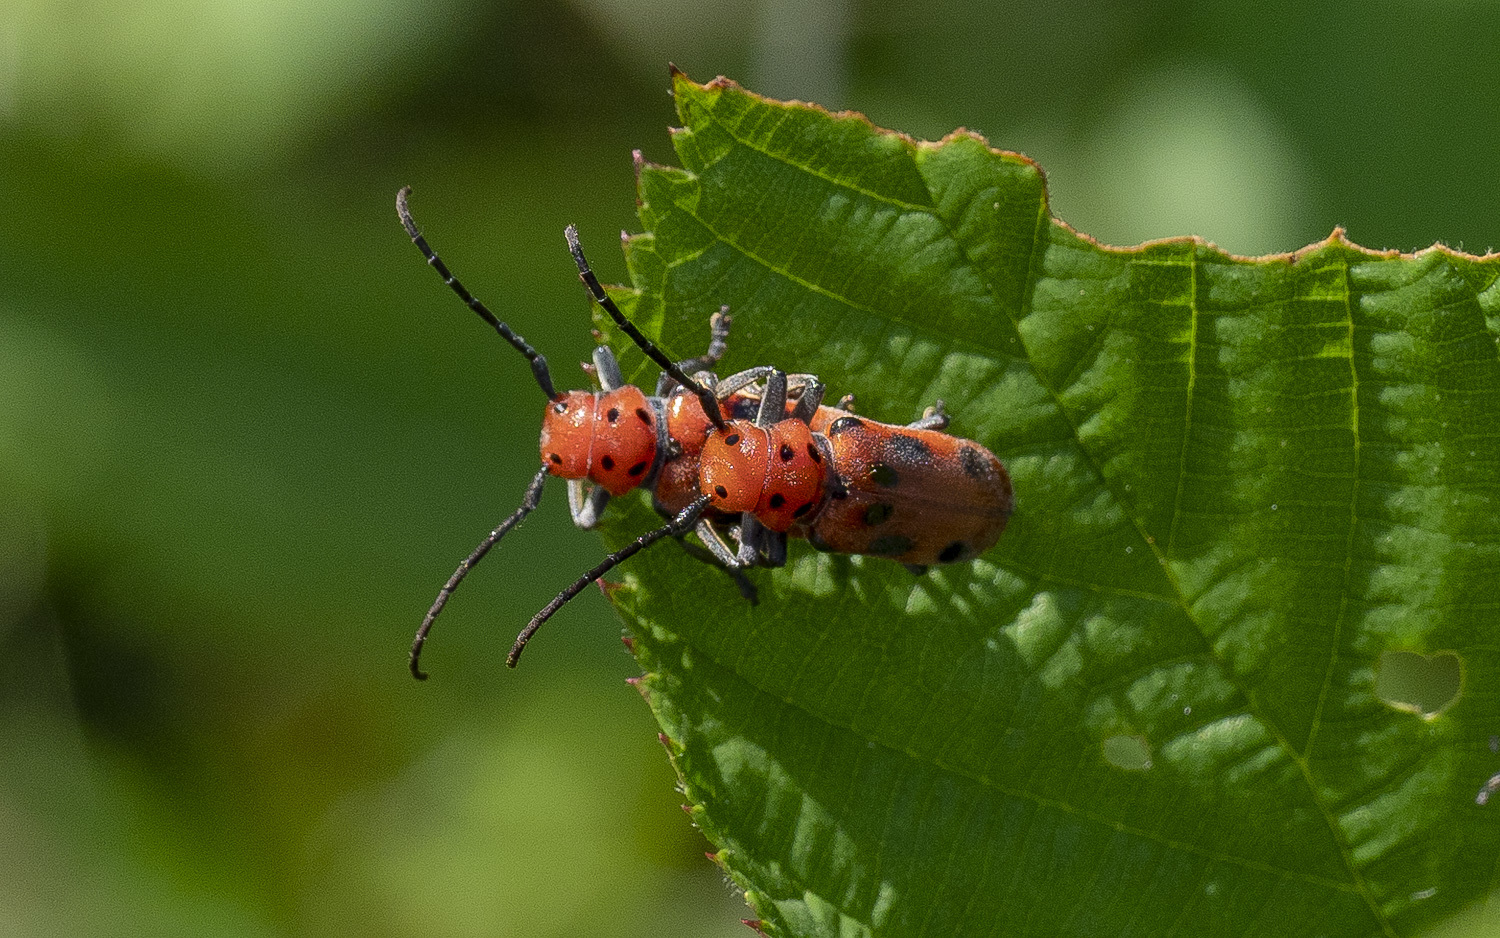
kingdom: Animalia
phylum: Arthropoda
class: Insecta
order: Coleoptera
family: Cerambycidae
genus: Tetraopes
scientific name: Tetraopes tetrophthalmus
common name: Red milkweed beetle
